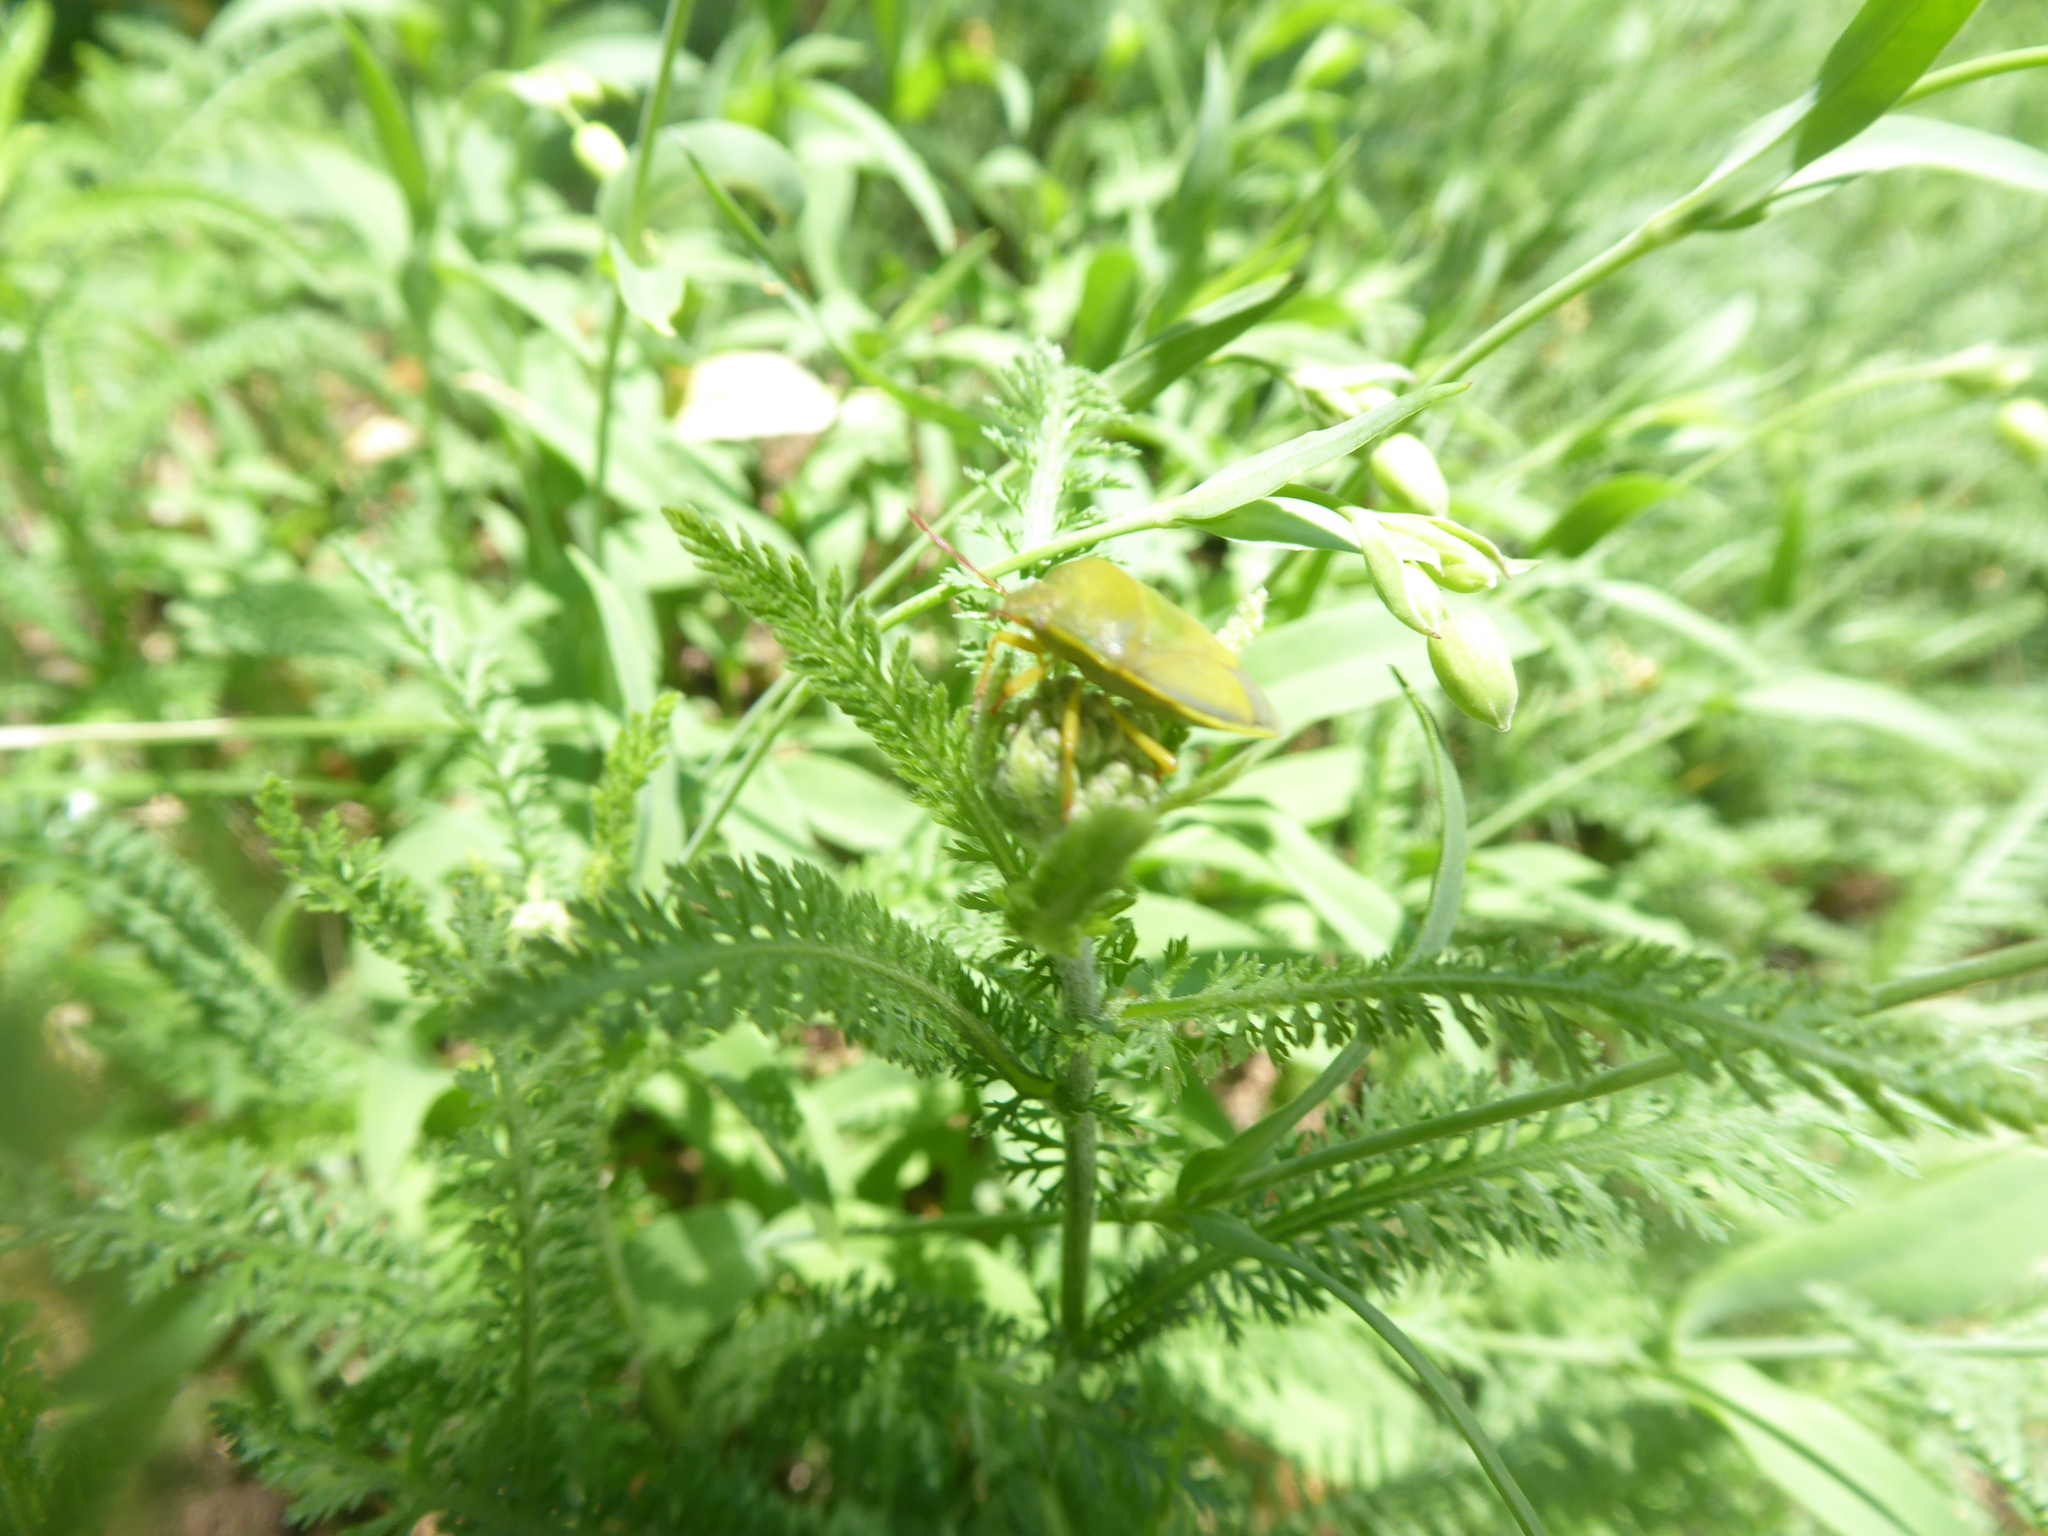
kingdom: Animalia
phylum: Arthropoda
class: Insecta
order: Hemiptera
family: Pentatomidae
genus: Piezodorus
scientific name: Piezodorus lituratus
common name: Stink bug
